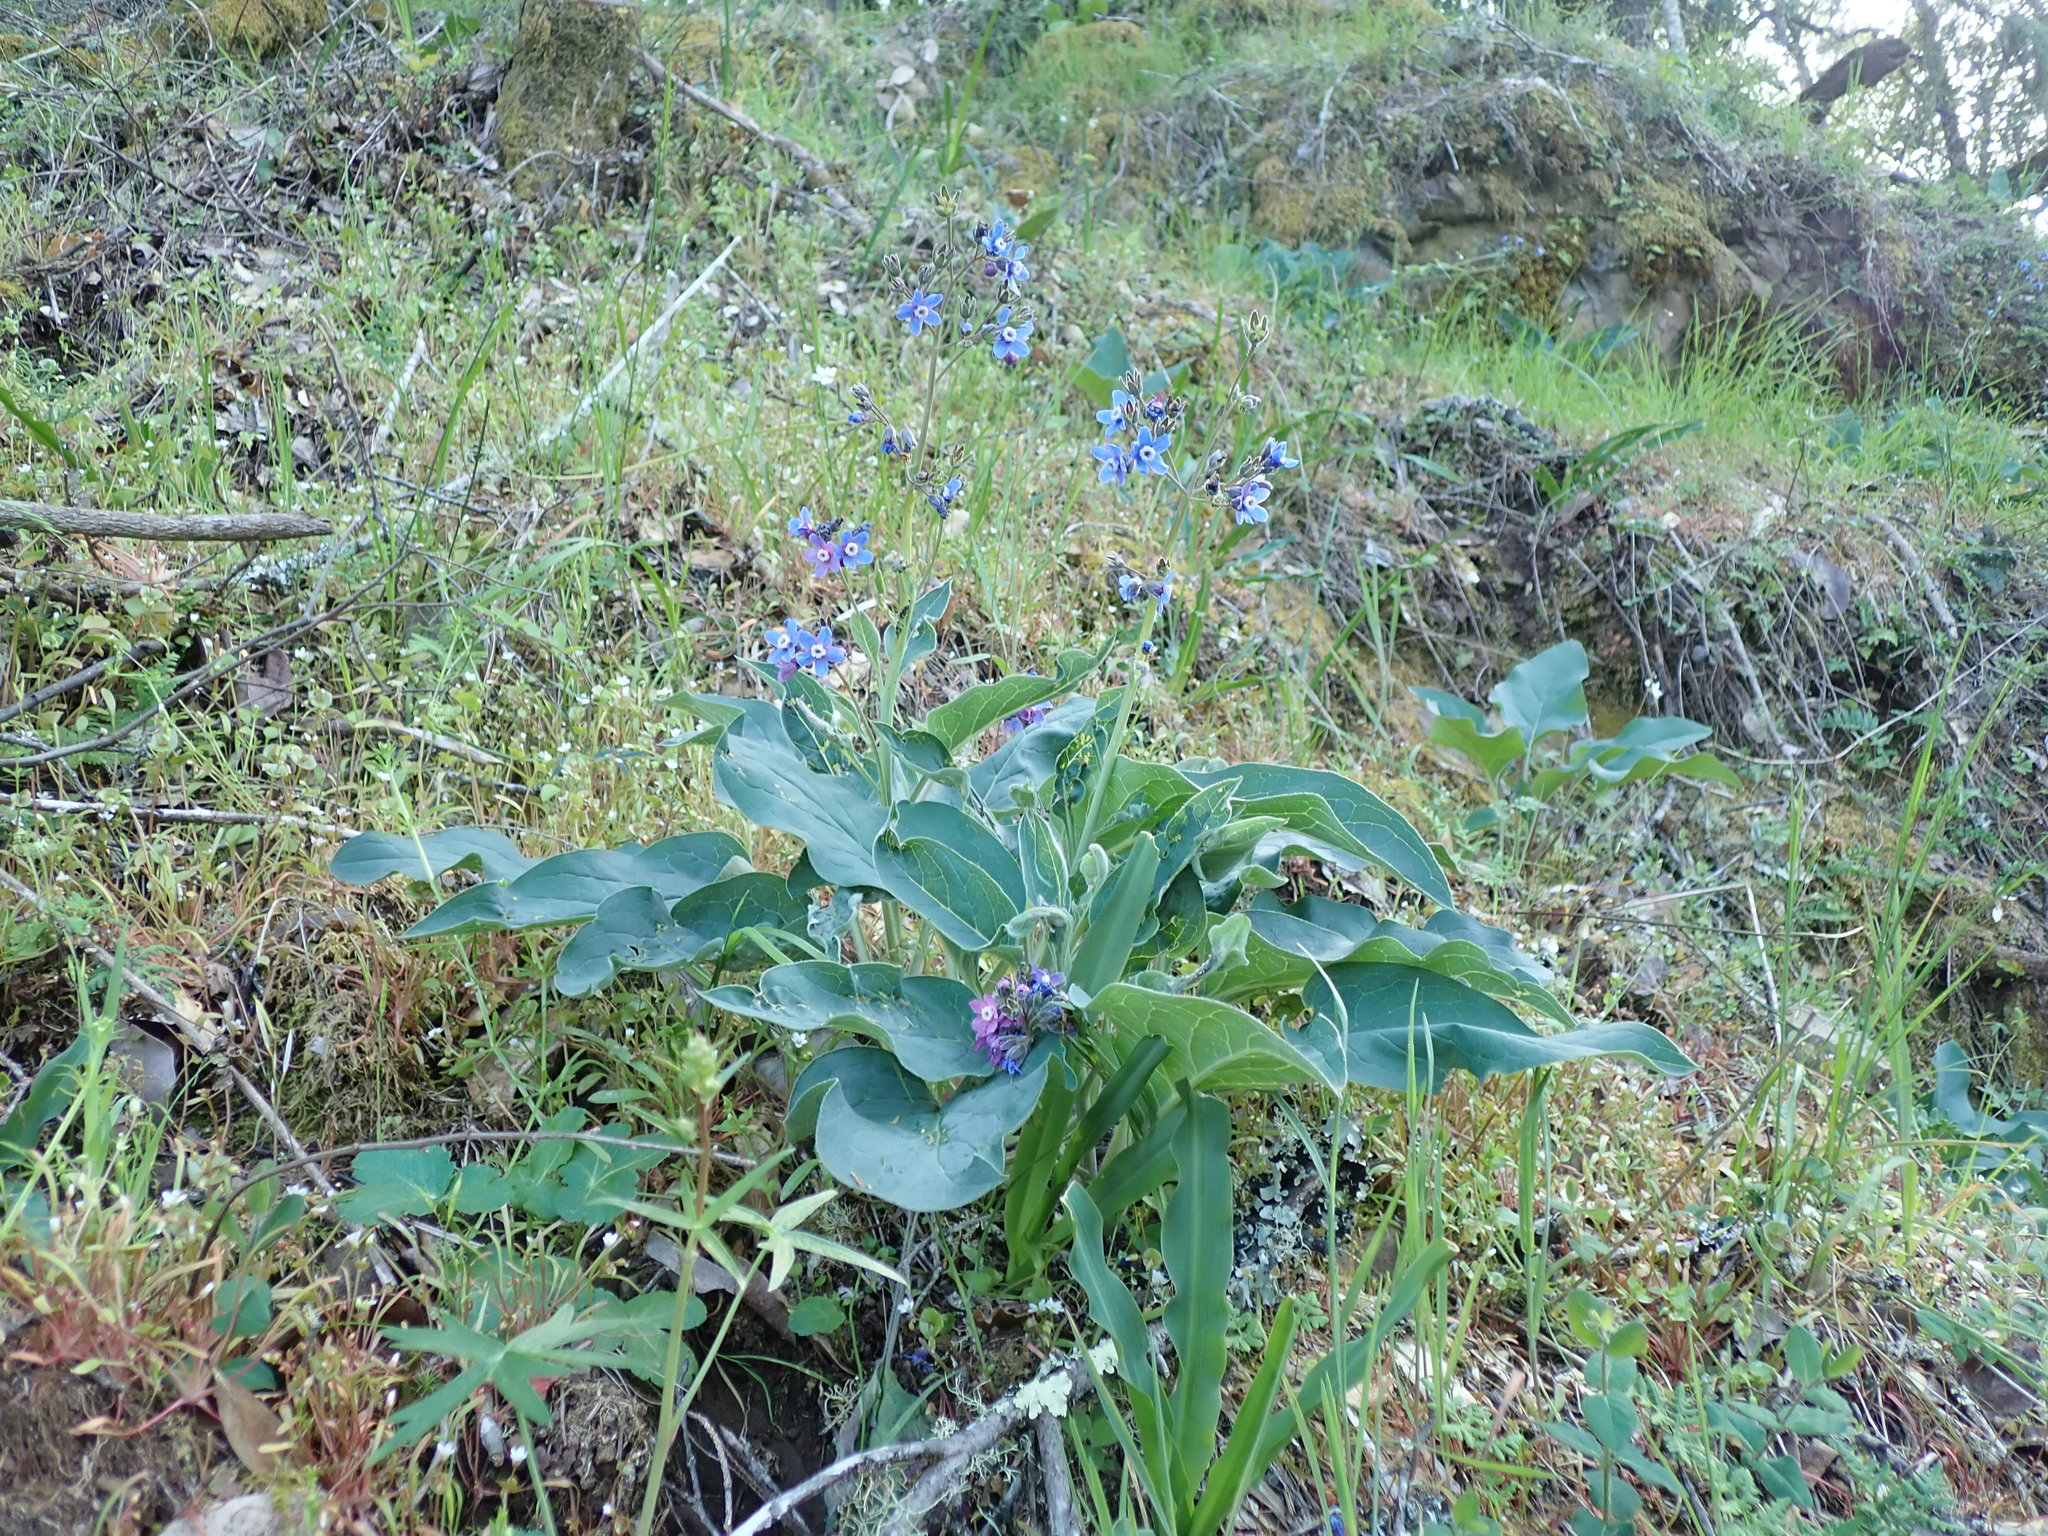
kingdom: Plantae
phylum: Tracheophyta
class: Magnoliopsida
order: Boraginales
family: Boraginaceae
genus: Adelinia
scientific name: Adelinia grande
